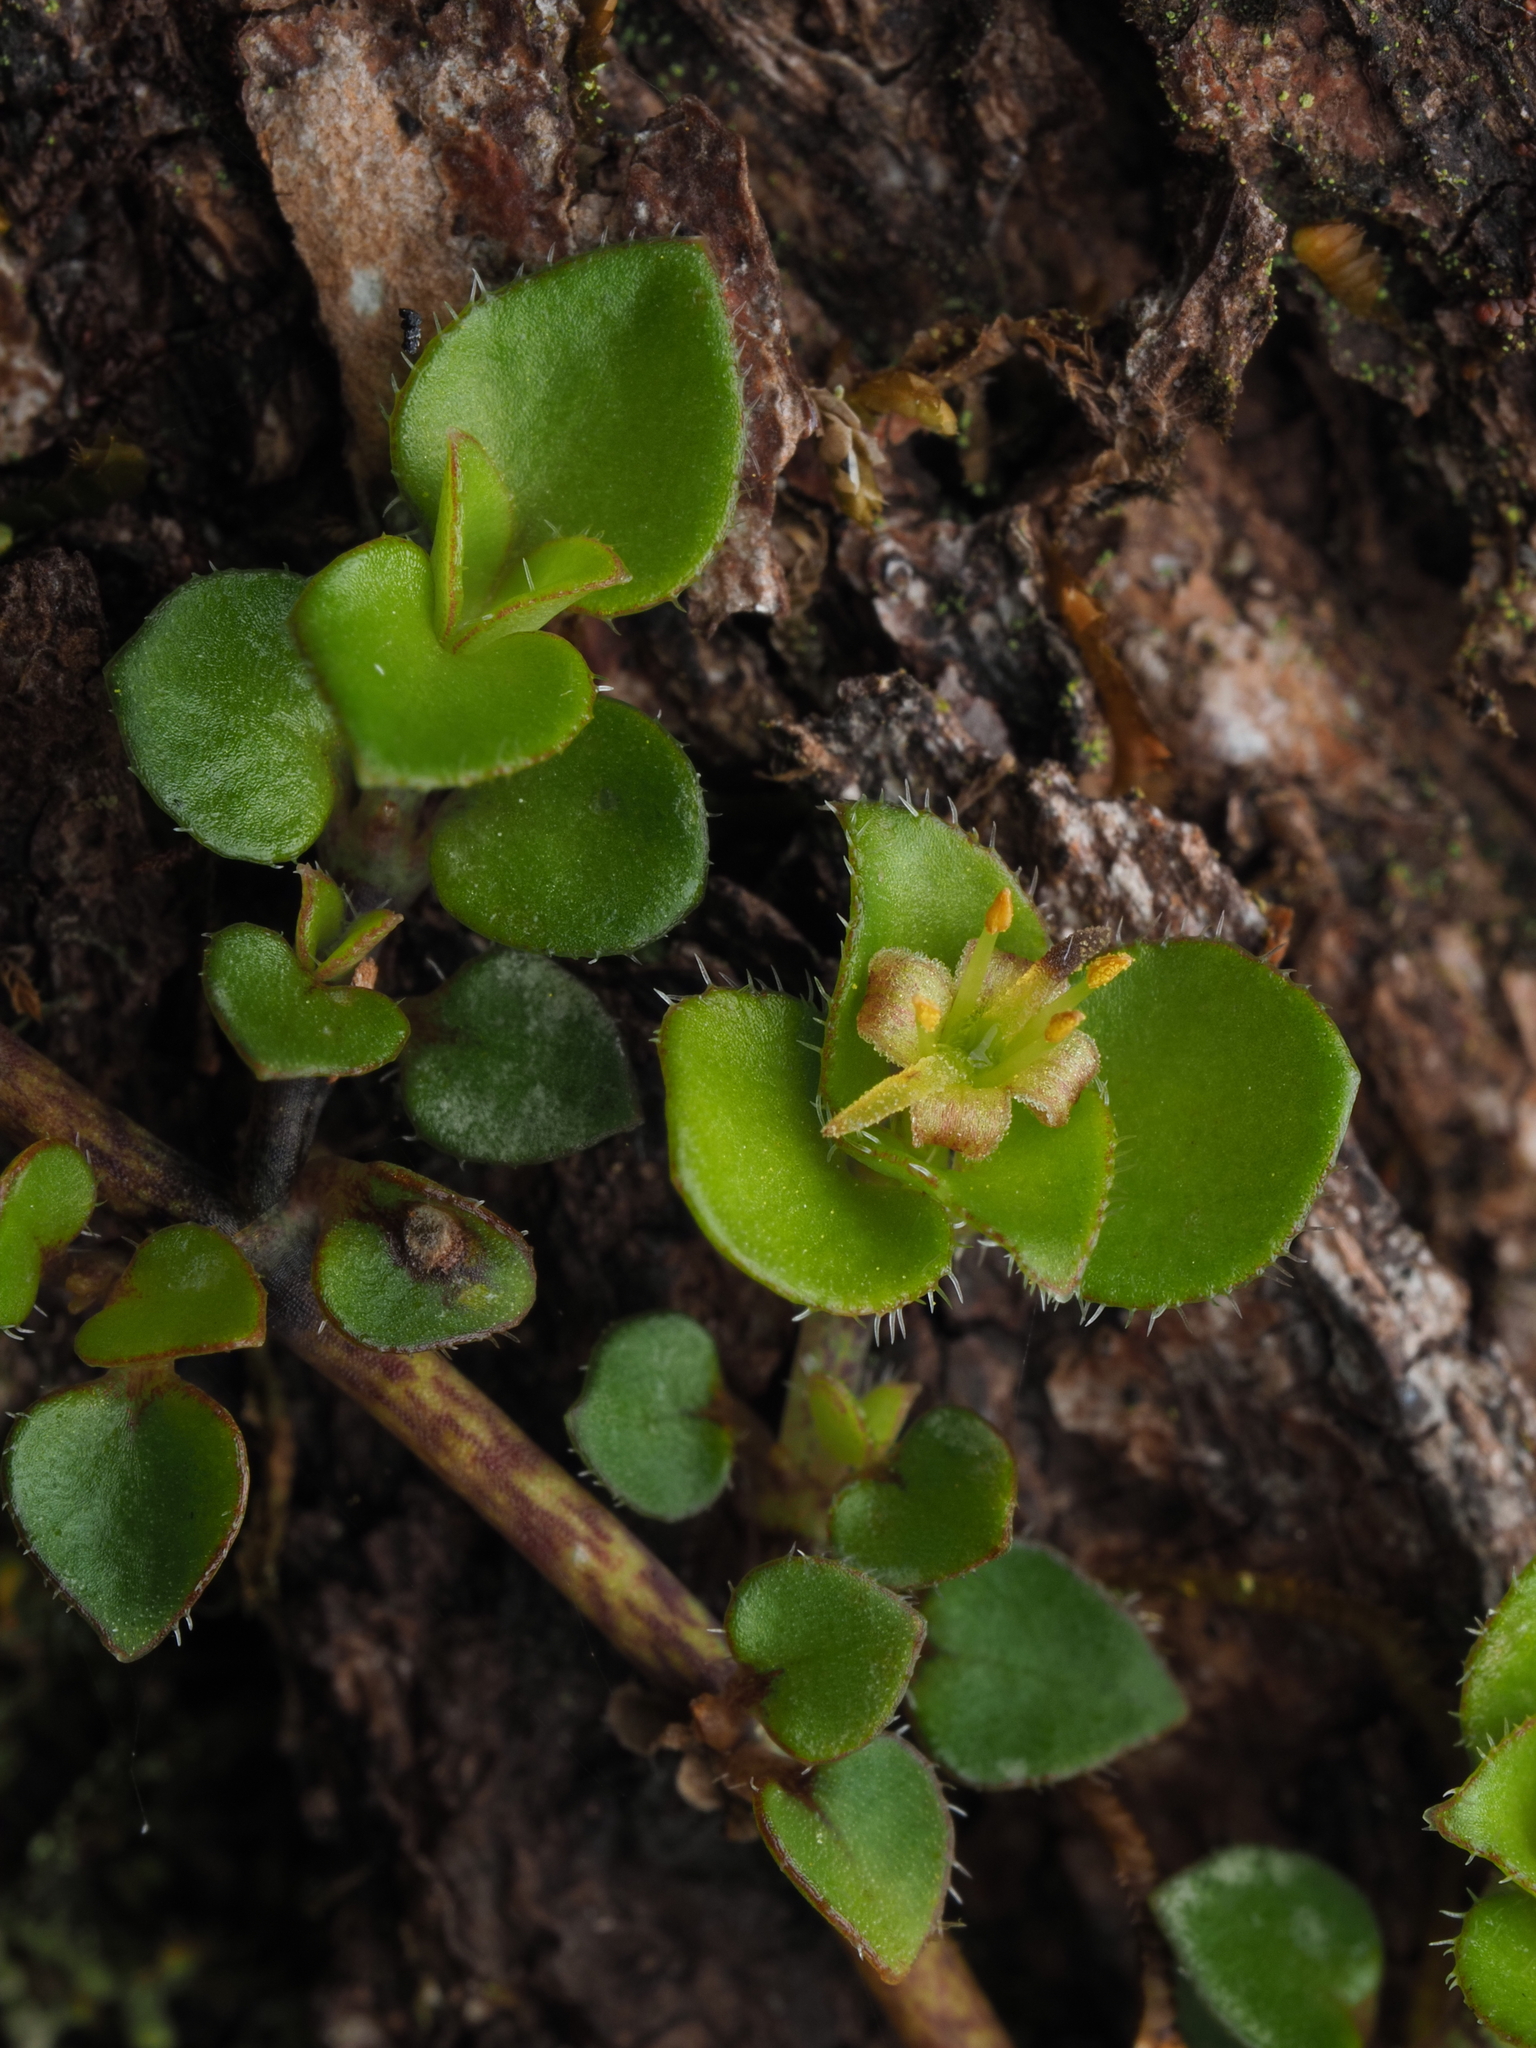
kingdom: Plantae
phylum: Tracheophyta
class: Magnoliopsida
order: Gentianales
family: Rubiaceae
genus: Nertera
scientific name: Nertera ciliata
